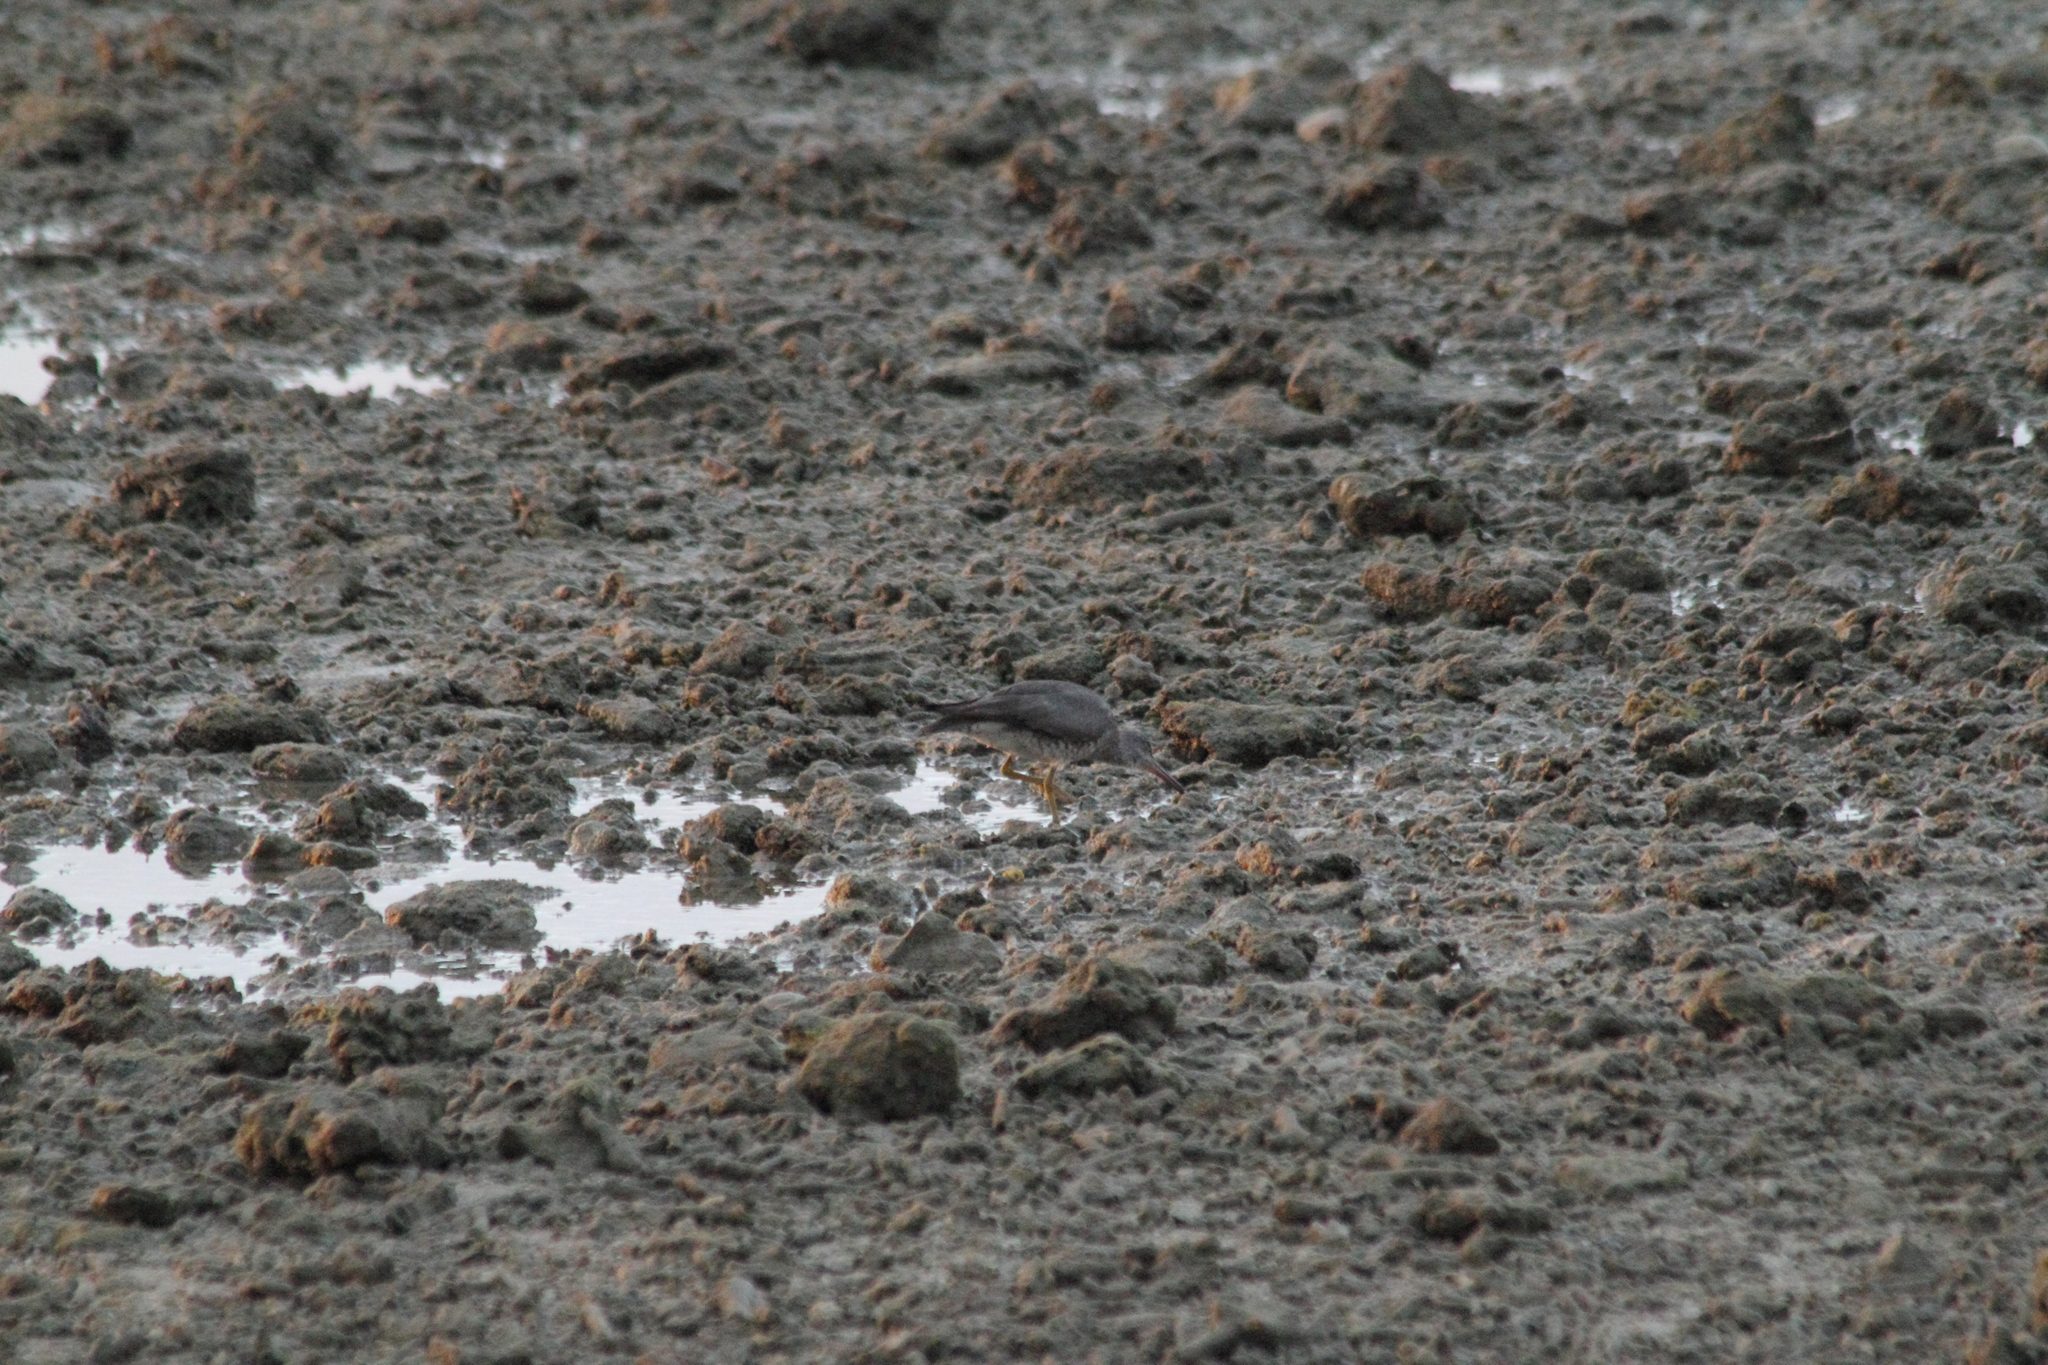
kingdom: Animalia
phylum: Chordata
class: Aves
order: Charadriiformes
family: Scolopacidae
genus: Tringa
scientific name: Tringa incana
